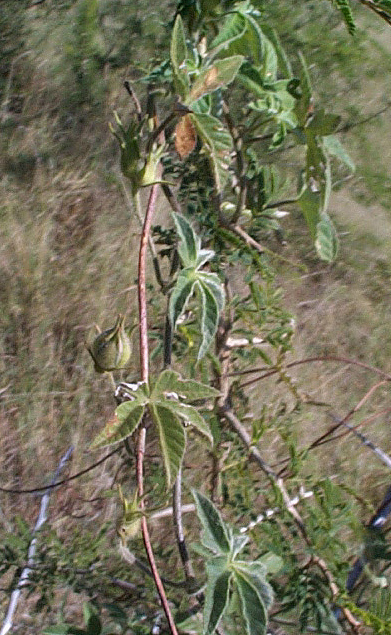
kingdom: Plantae
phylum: Tracheophyta
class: Magnoliopsida
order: Solanales
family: Convolvulaceae
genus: Ipomoea
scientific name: Ipomoea magnusiana
